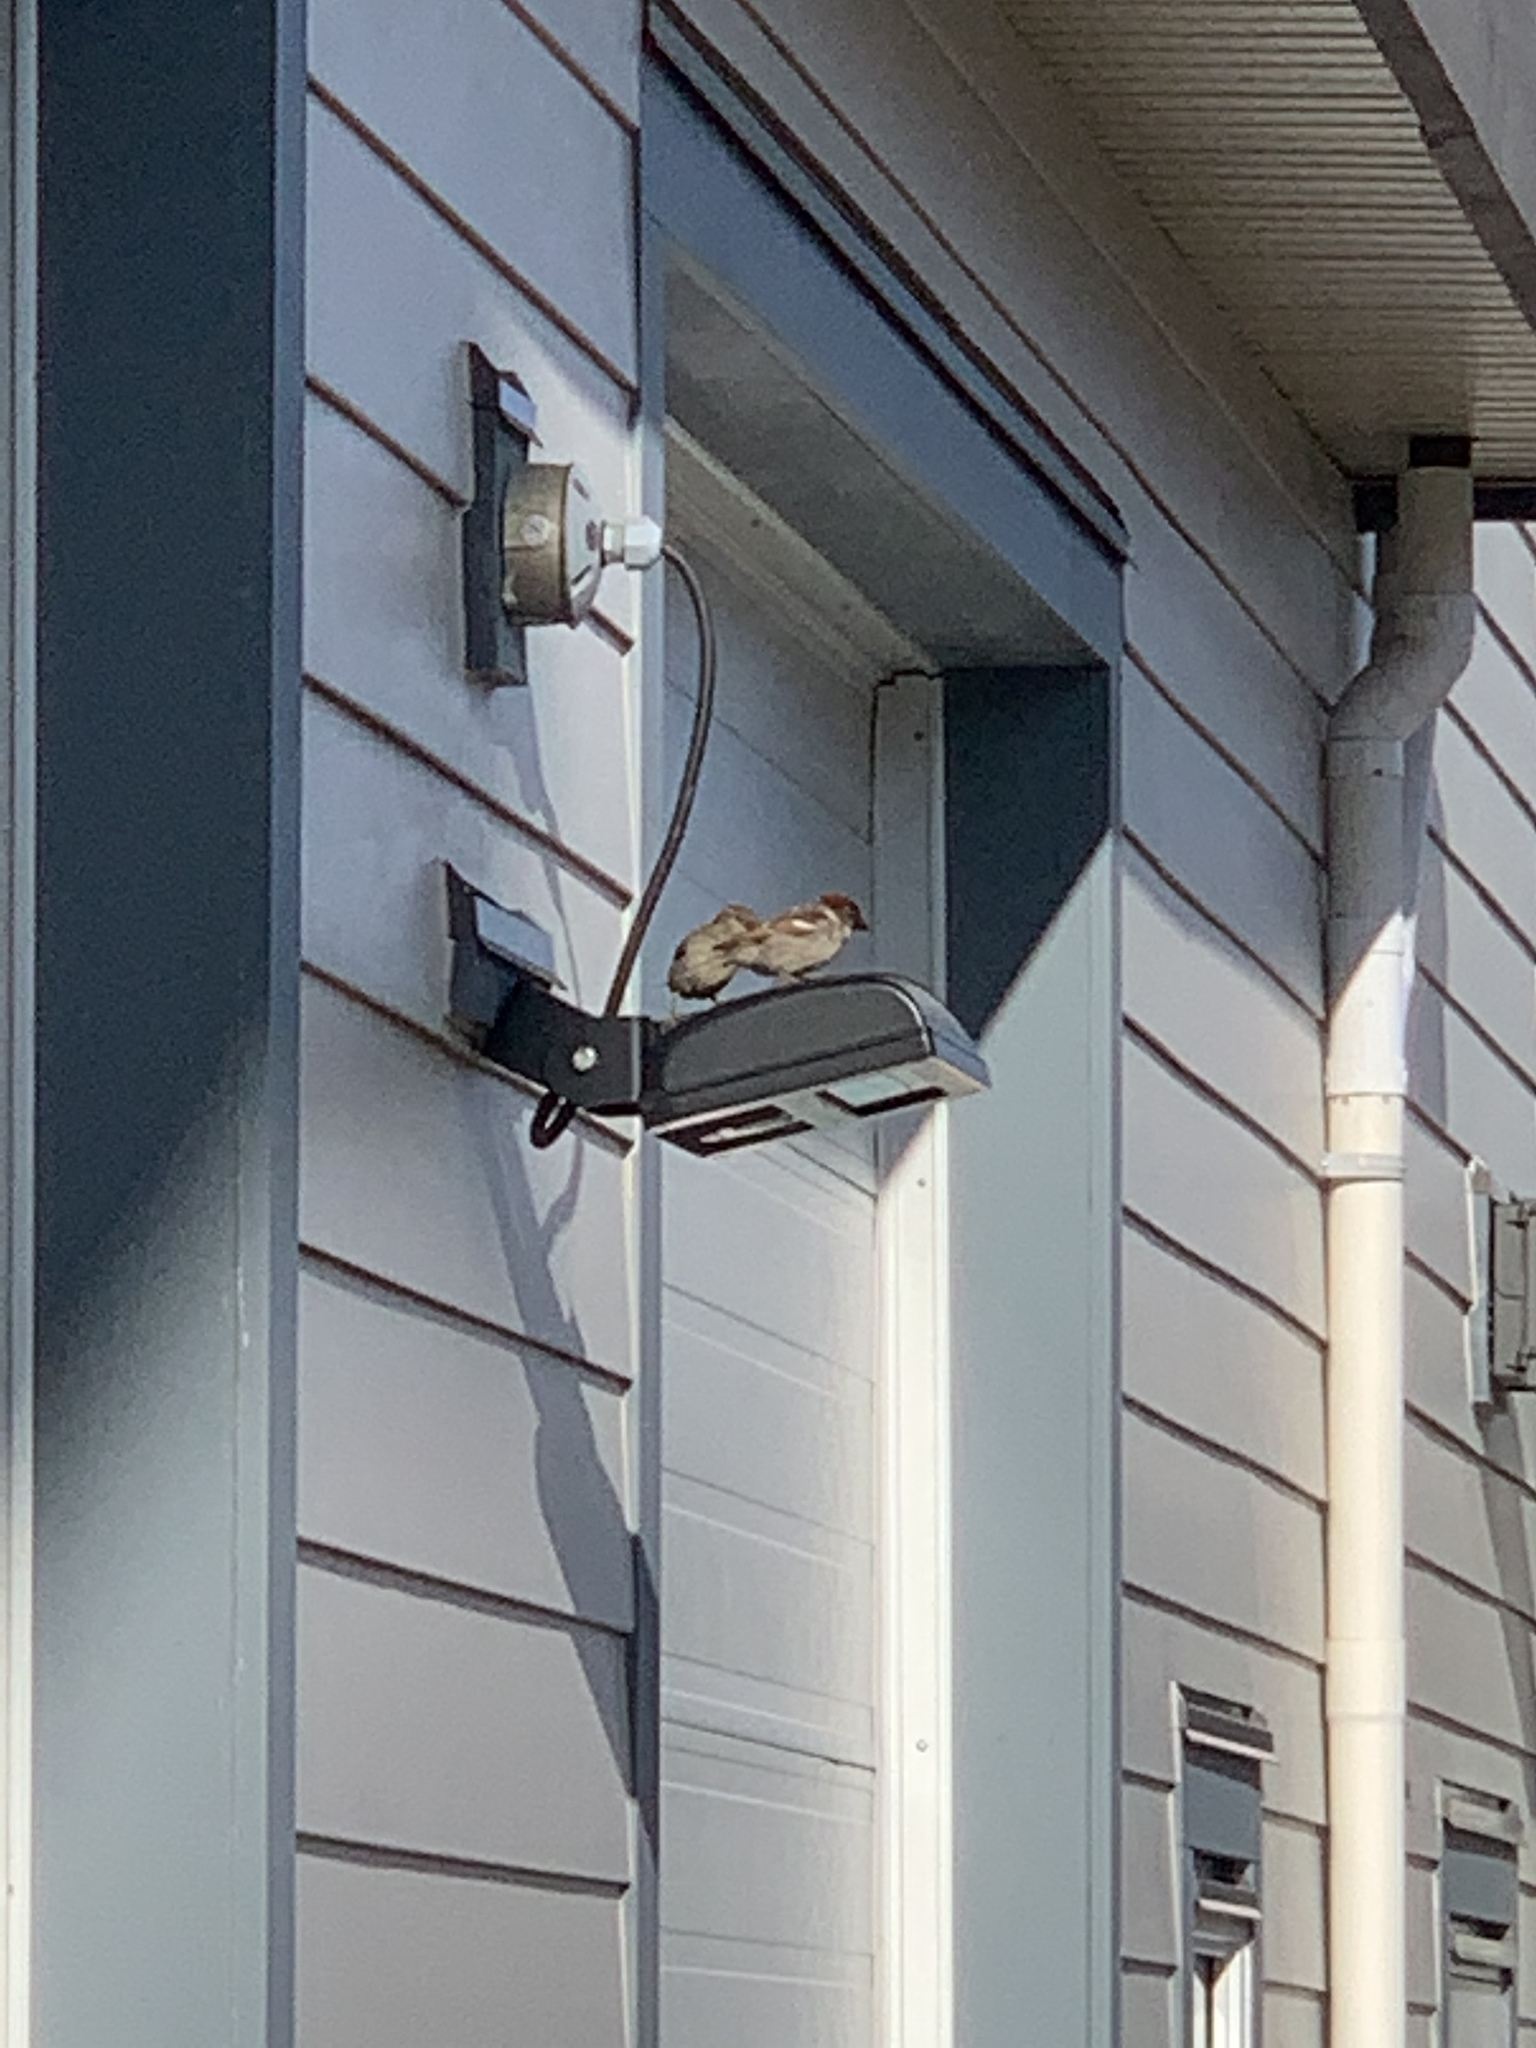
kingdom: Animalia
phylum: Chordata
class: Aves
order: Passeriformes
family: Passeridae
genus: Passer
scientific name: Passer domesticus
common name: House sparrow
